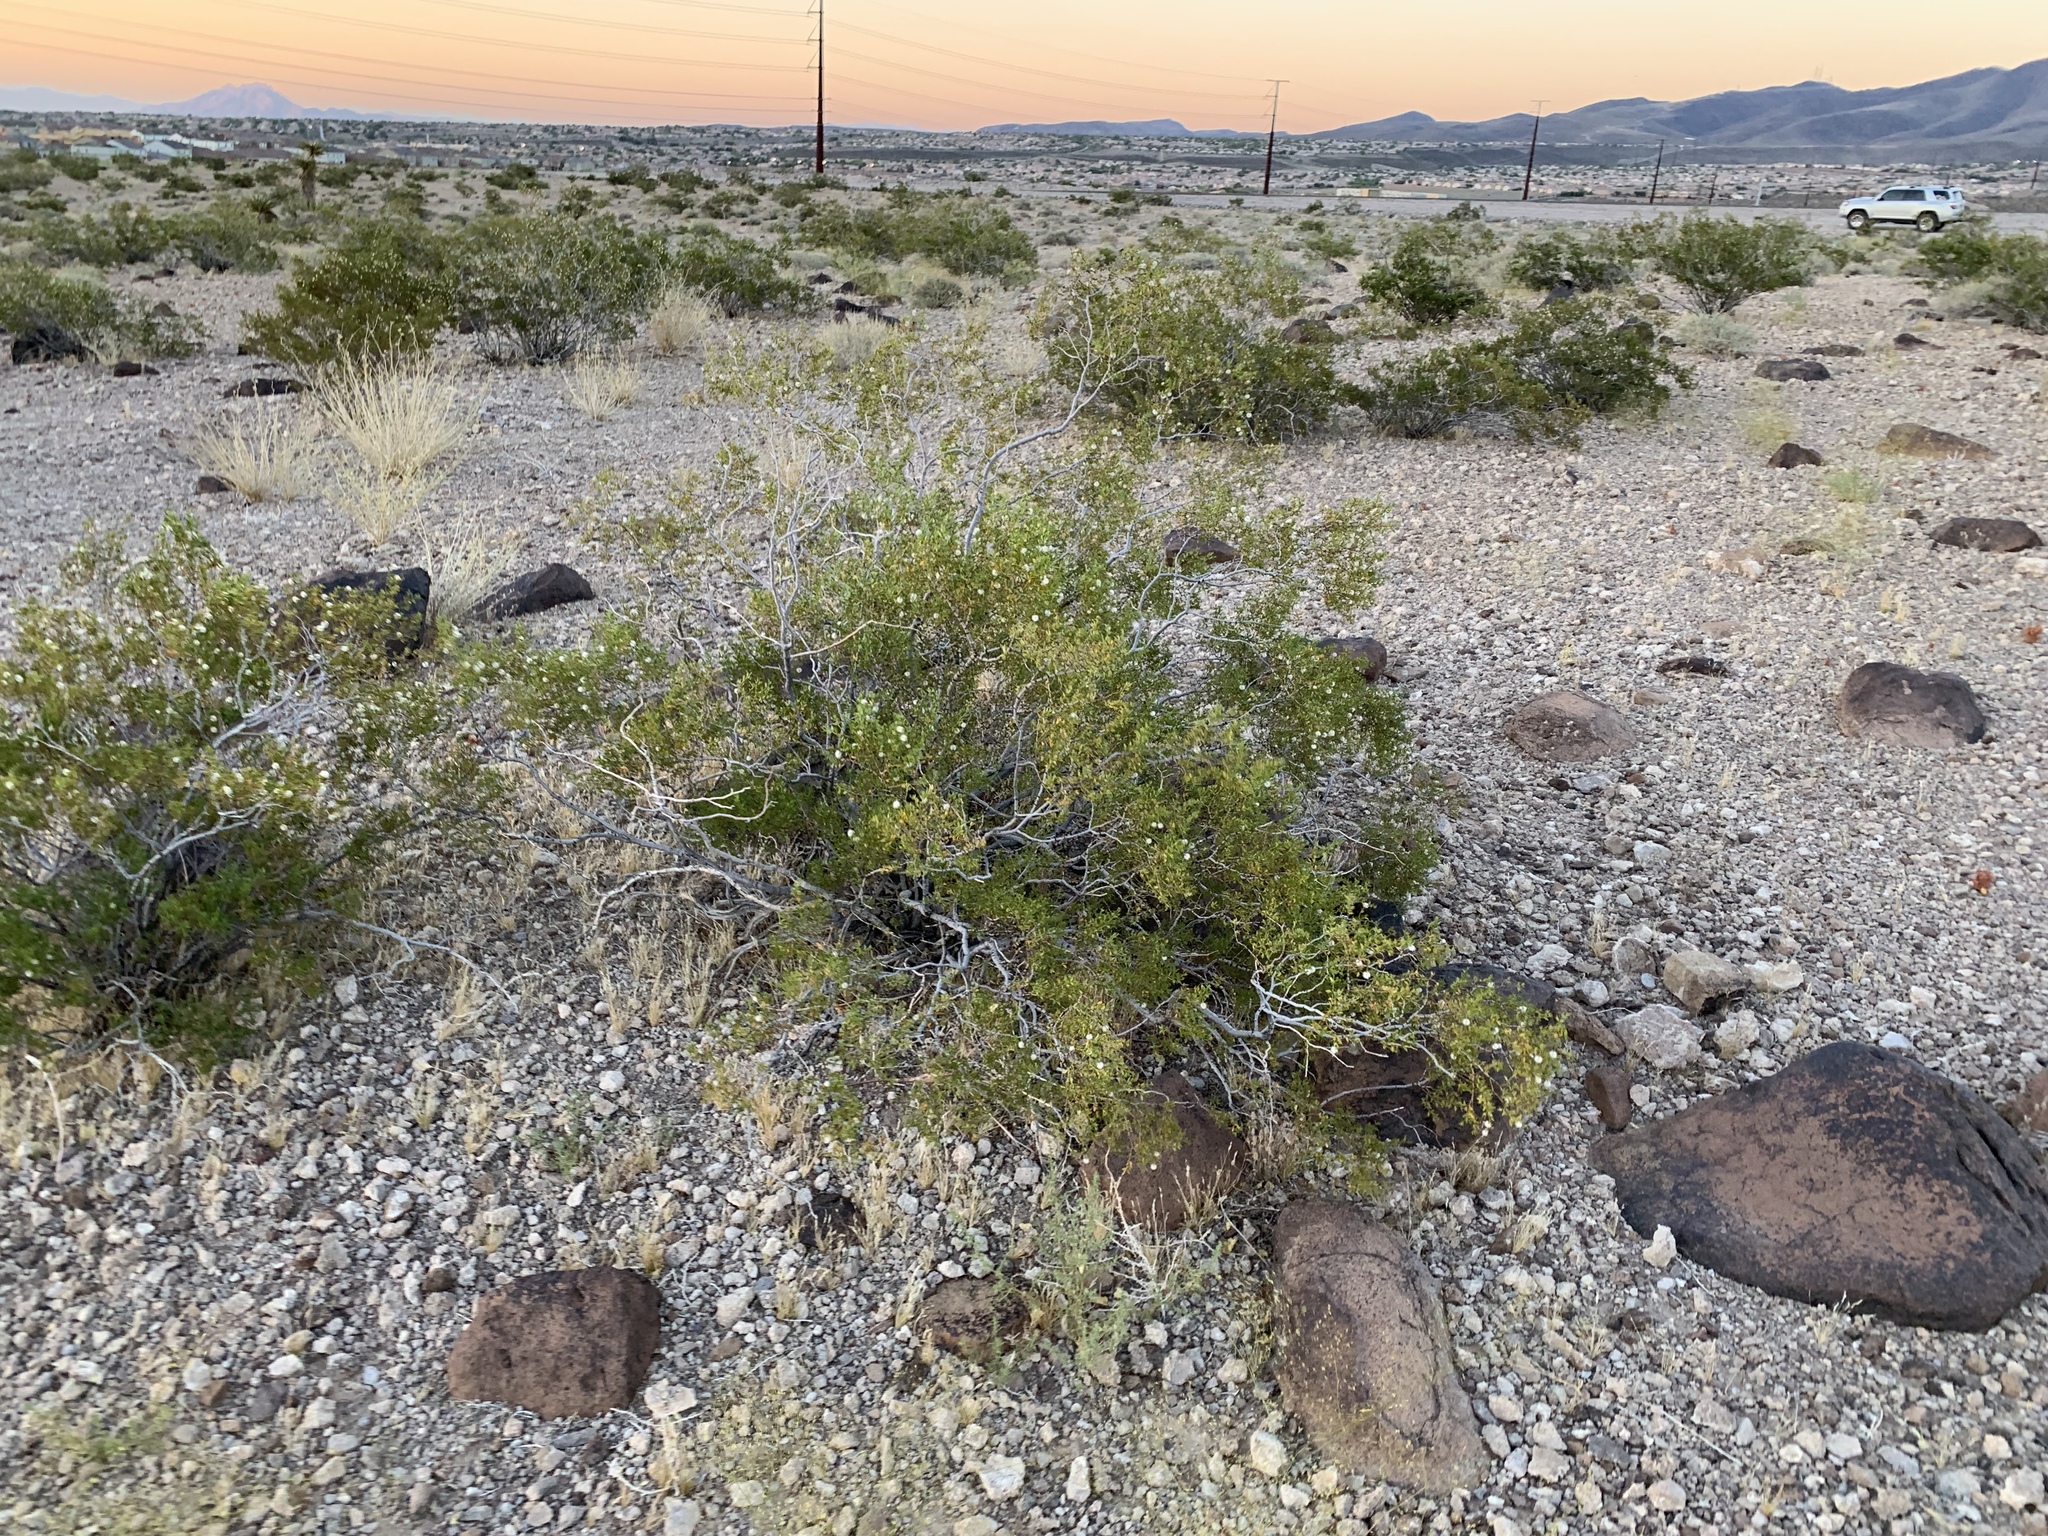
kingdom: Plantae
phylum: Tracheophyta
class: Magnoliopsida
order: Zygophyllales
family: Zygophyllaceae
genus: Larrea
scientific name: Larrea tridentata
